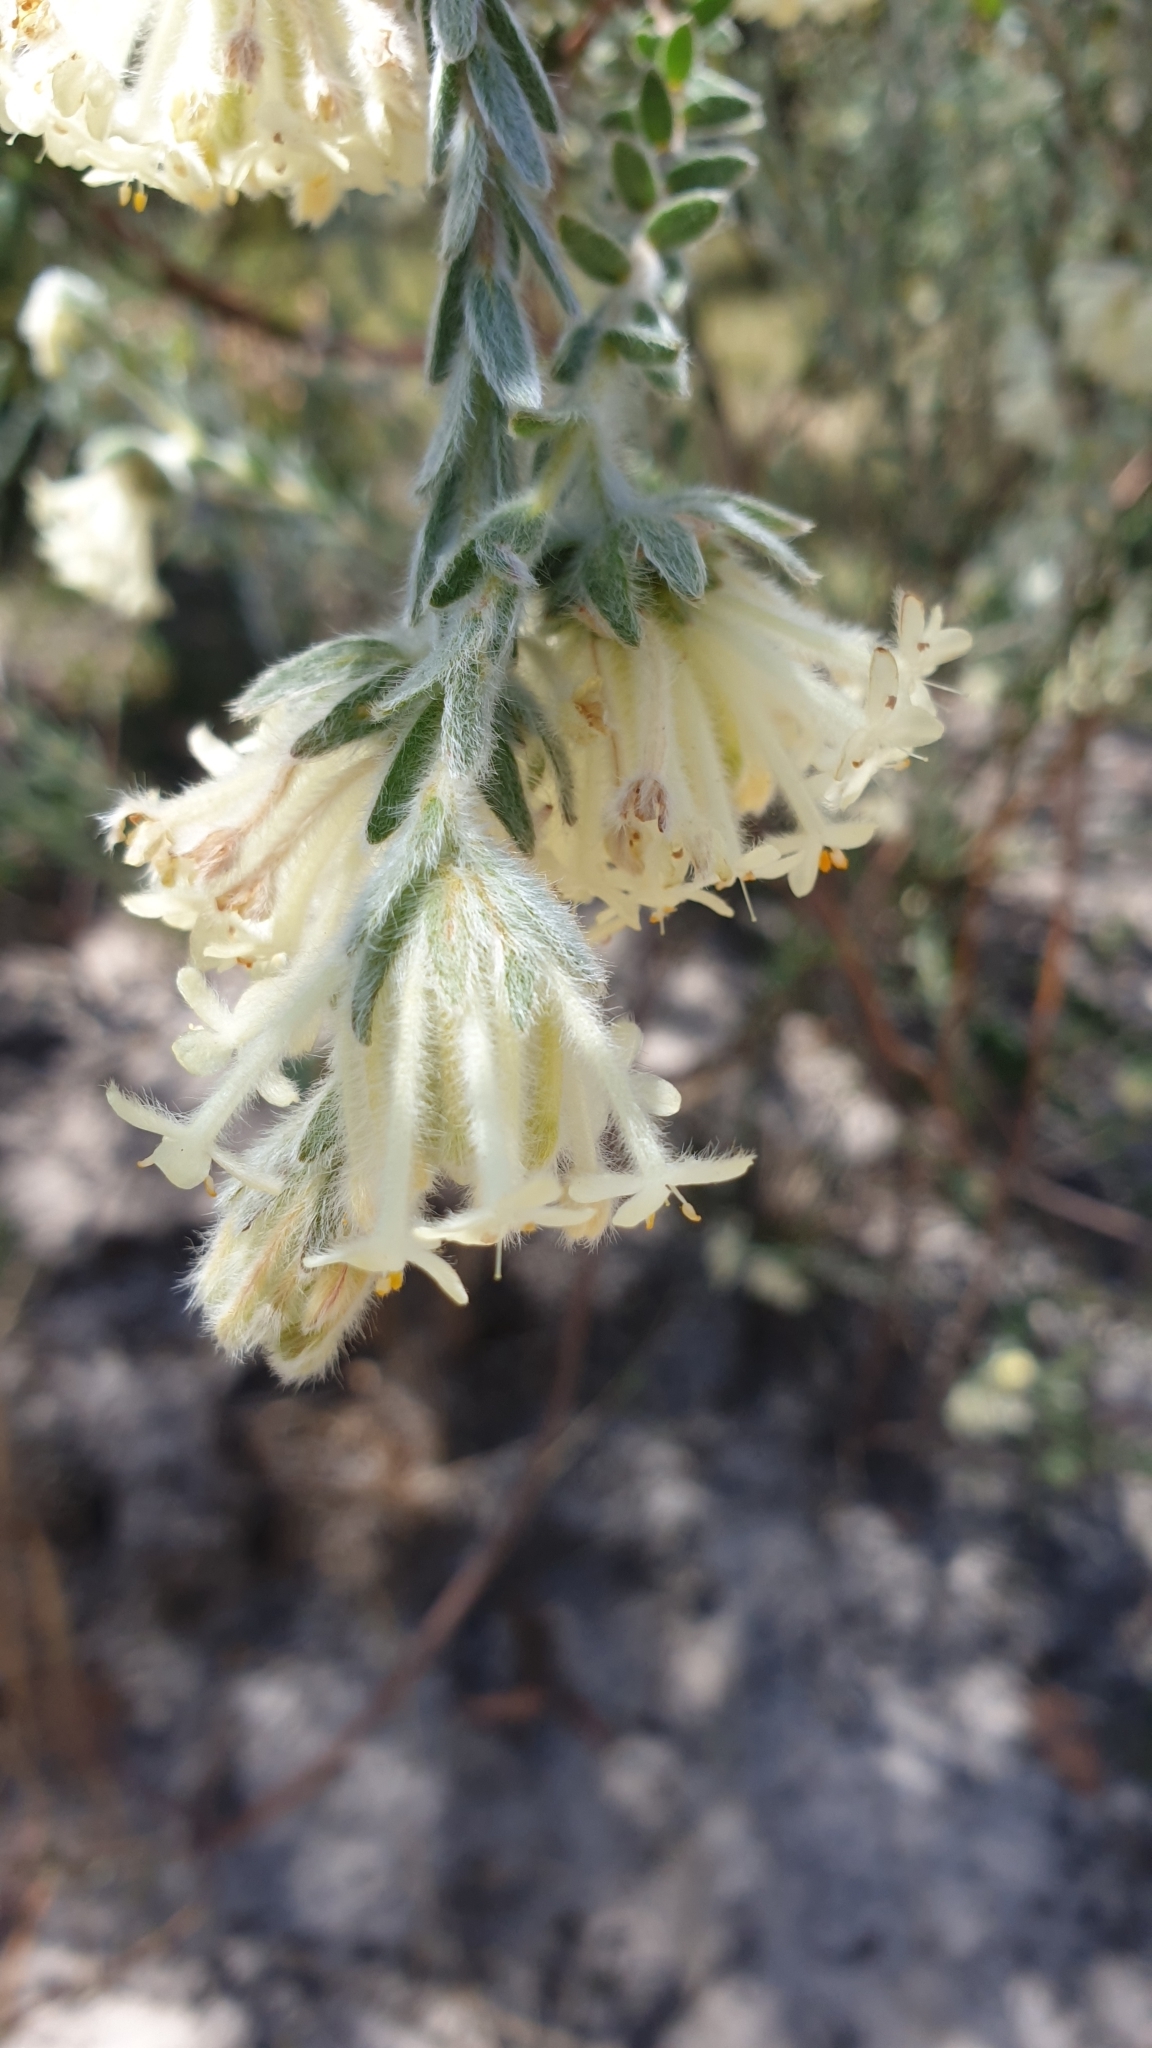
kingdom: Plantae
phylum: Tracheophyta
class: Magnoliopsida
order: Malvales
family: Thymelaeaceae
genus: Pimelea
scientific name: Pimelea octophylla
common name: Woolly riceflower
